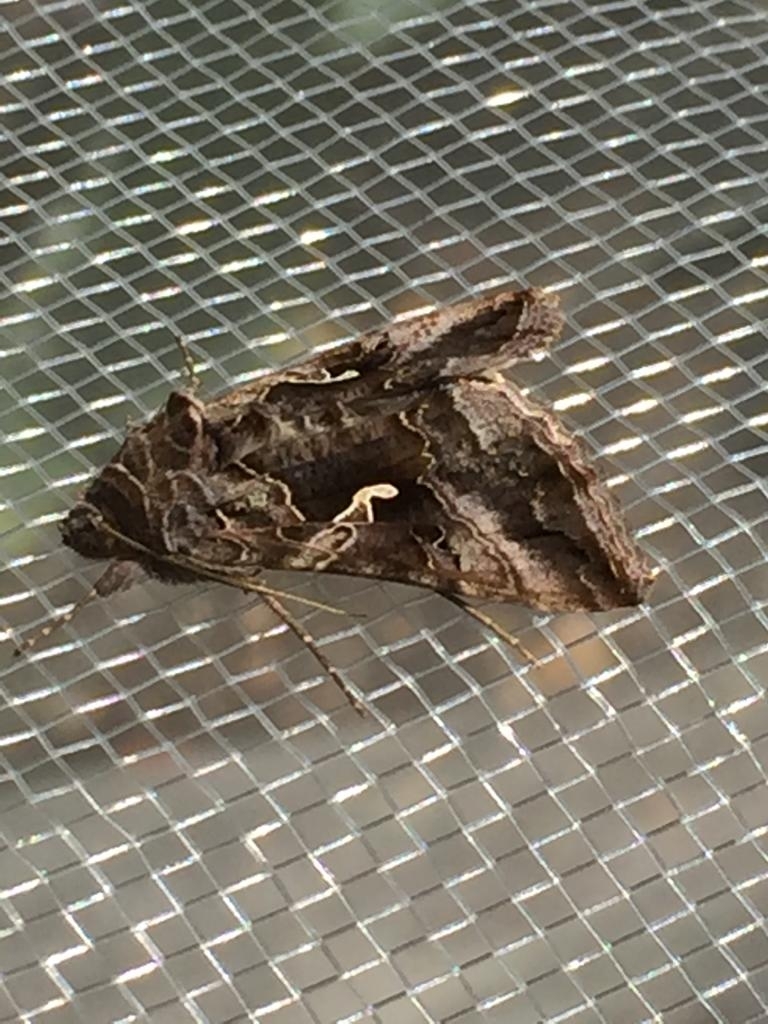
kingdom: Animalia
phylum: Arthropoda
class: Insecta
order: Lepidoptera
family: Noctuidae
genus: Autographa
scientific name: Autographa gamma
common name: Silver y
